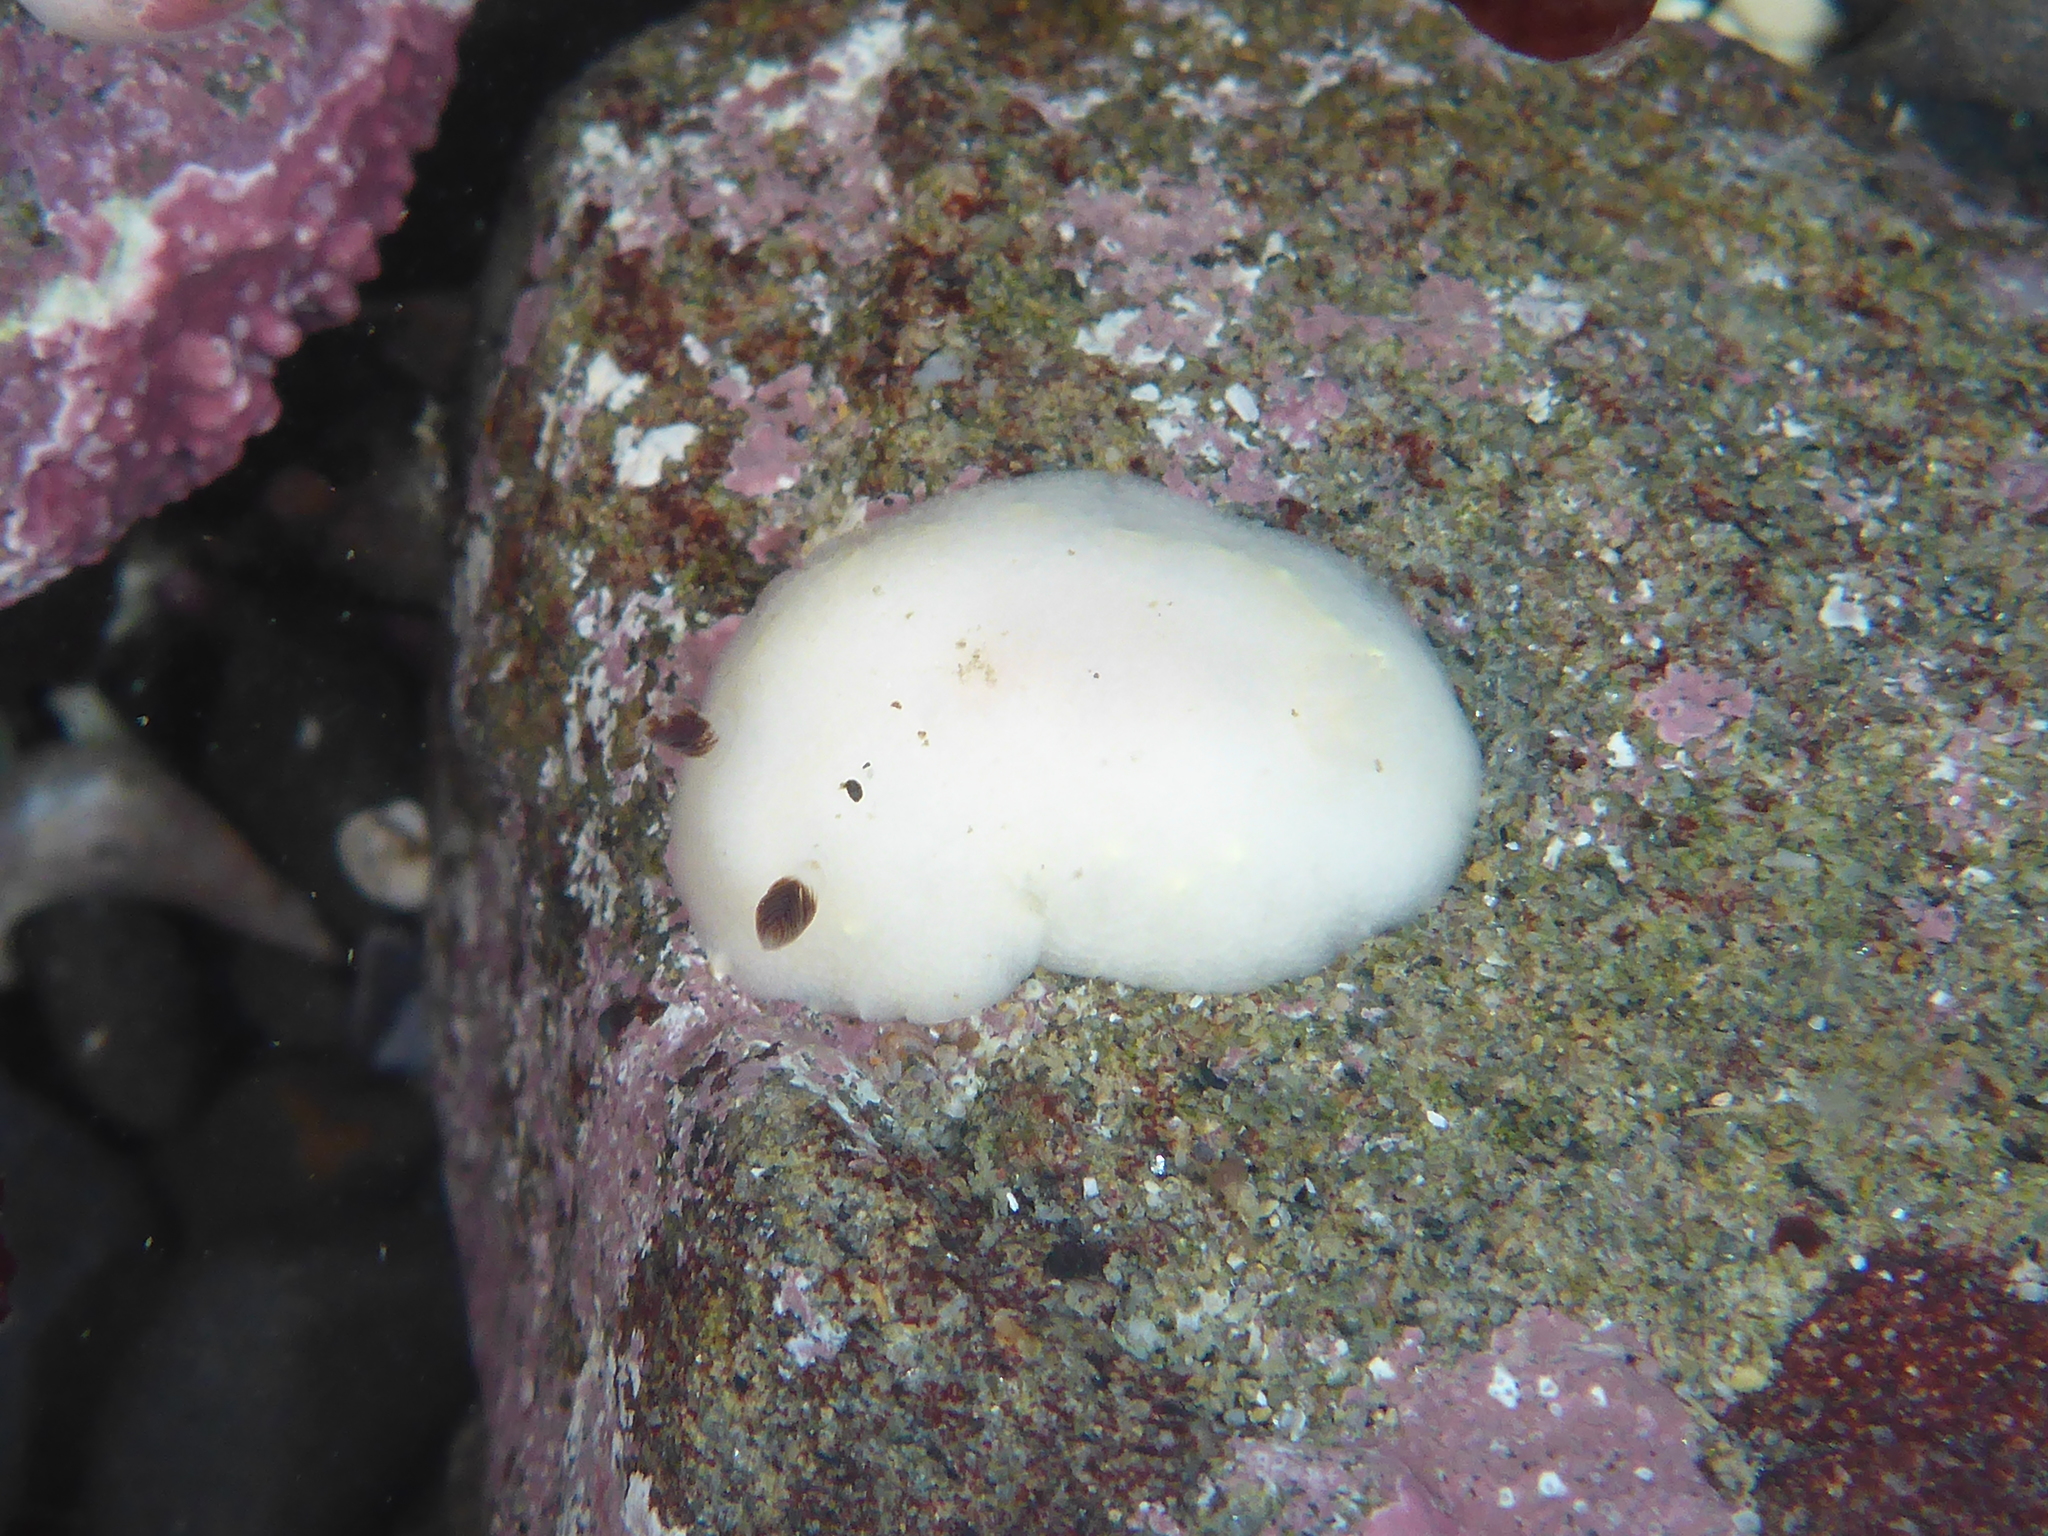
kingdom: Animalia
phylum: Mollusca
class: Gastropoda
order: Nudibranchia
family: Cadlinidae
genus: Cadlina
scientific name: Cadlina flavomaculata
